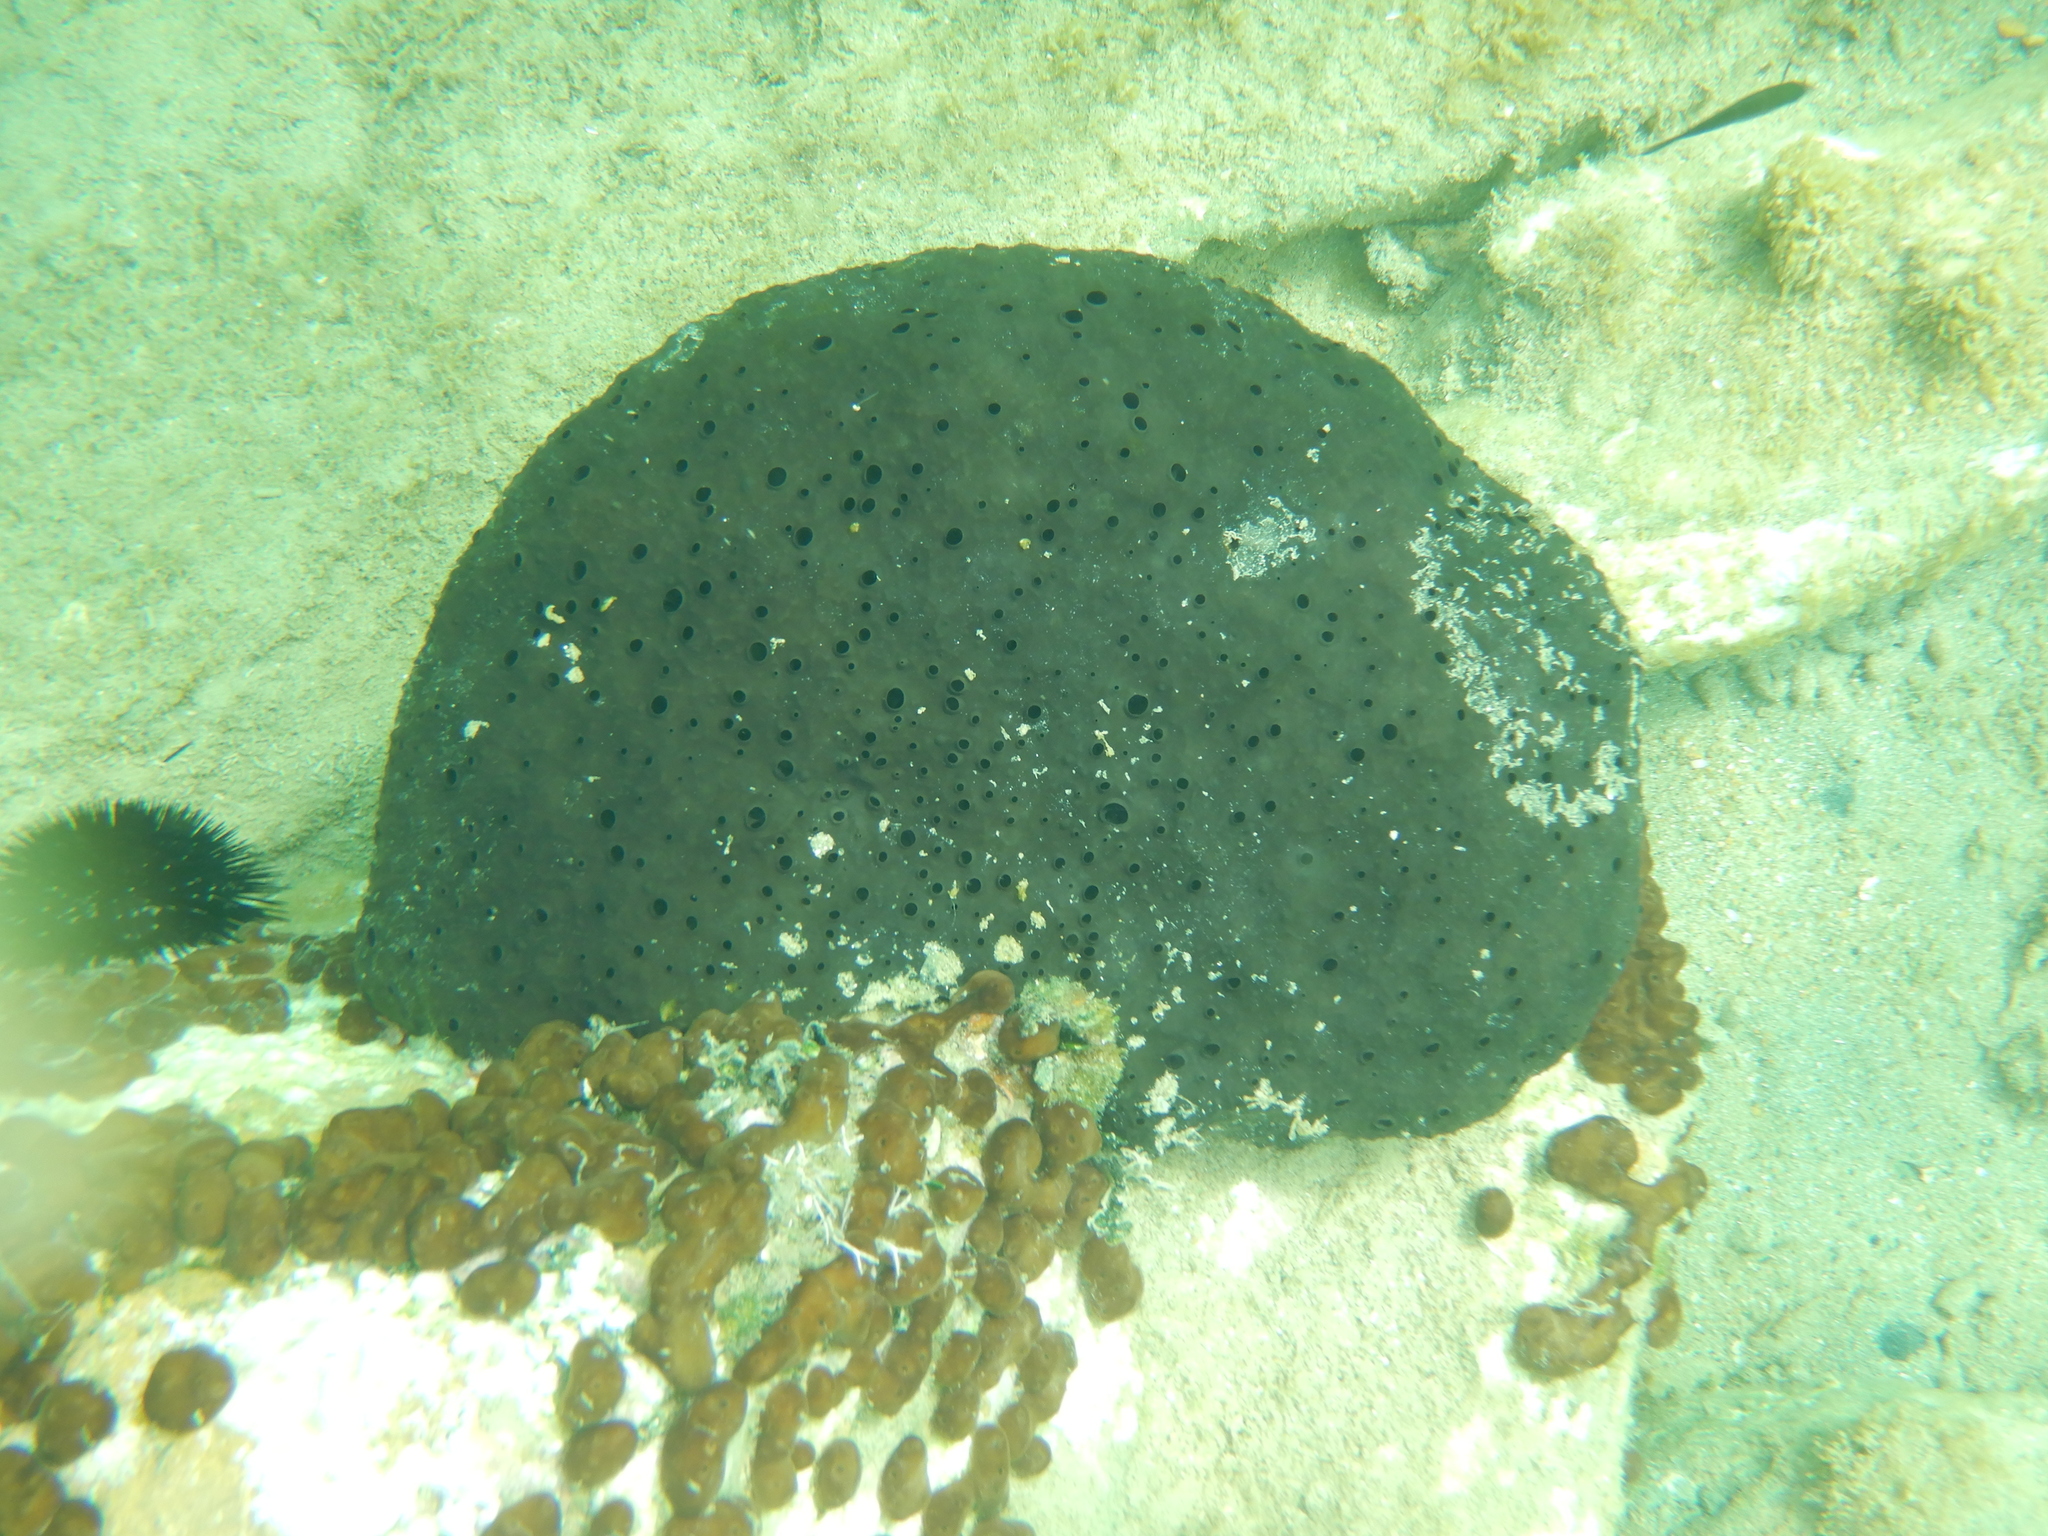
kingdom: Animalia
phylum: Porifera
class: Demospongiae
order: Dictyoceratida
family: Irciniidae
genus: Sarcotragus
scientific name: Sarcotragus spinosulus
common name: Black leather sponge
